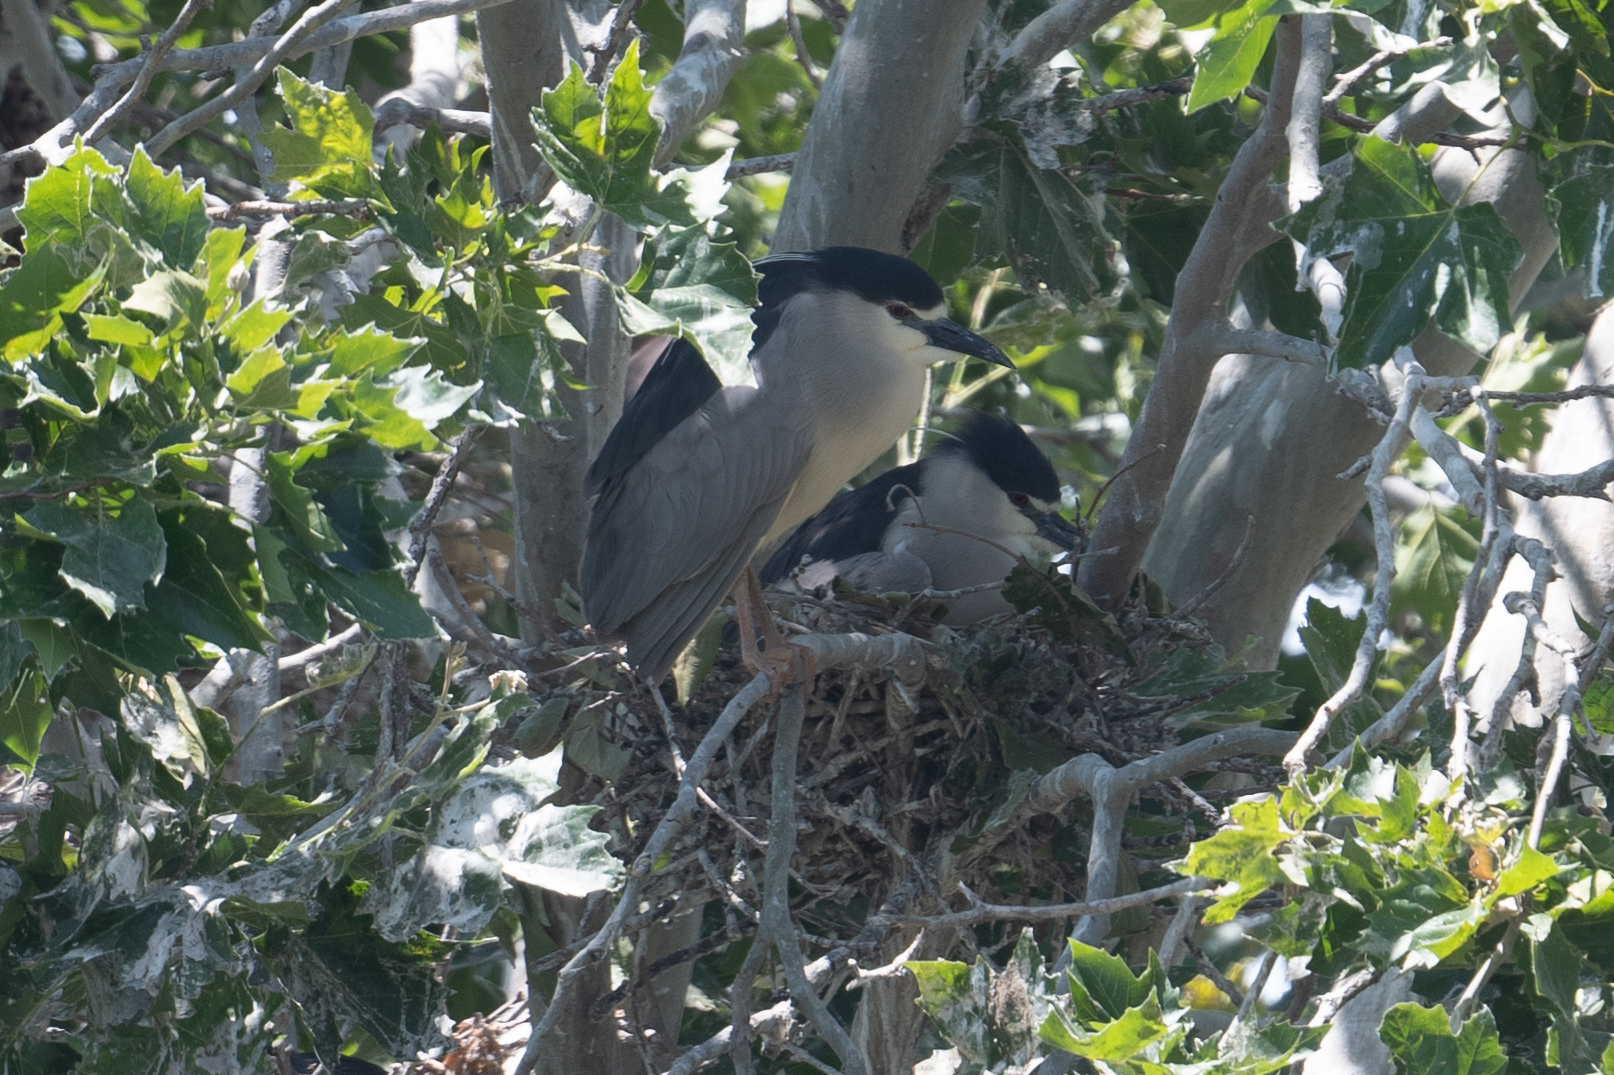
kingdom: Animalia
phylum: Chordata
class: Aves
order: Pelecaniformes
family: Ardeidae
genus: Nycticorax
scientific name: Nycticorax nycticorax
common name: Black-crowned night heron
